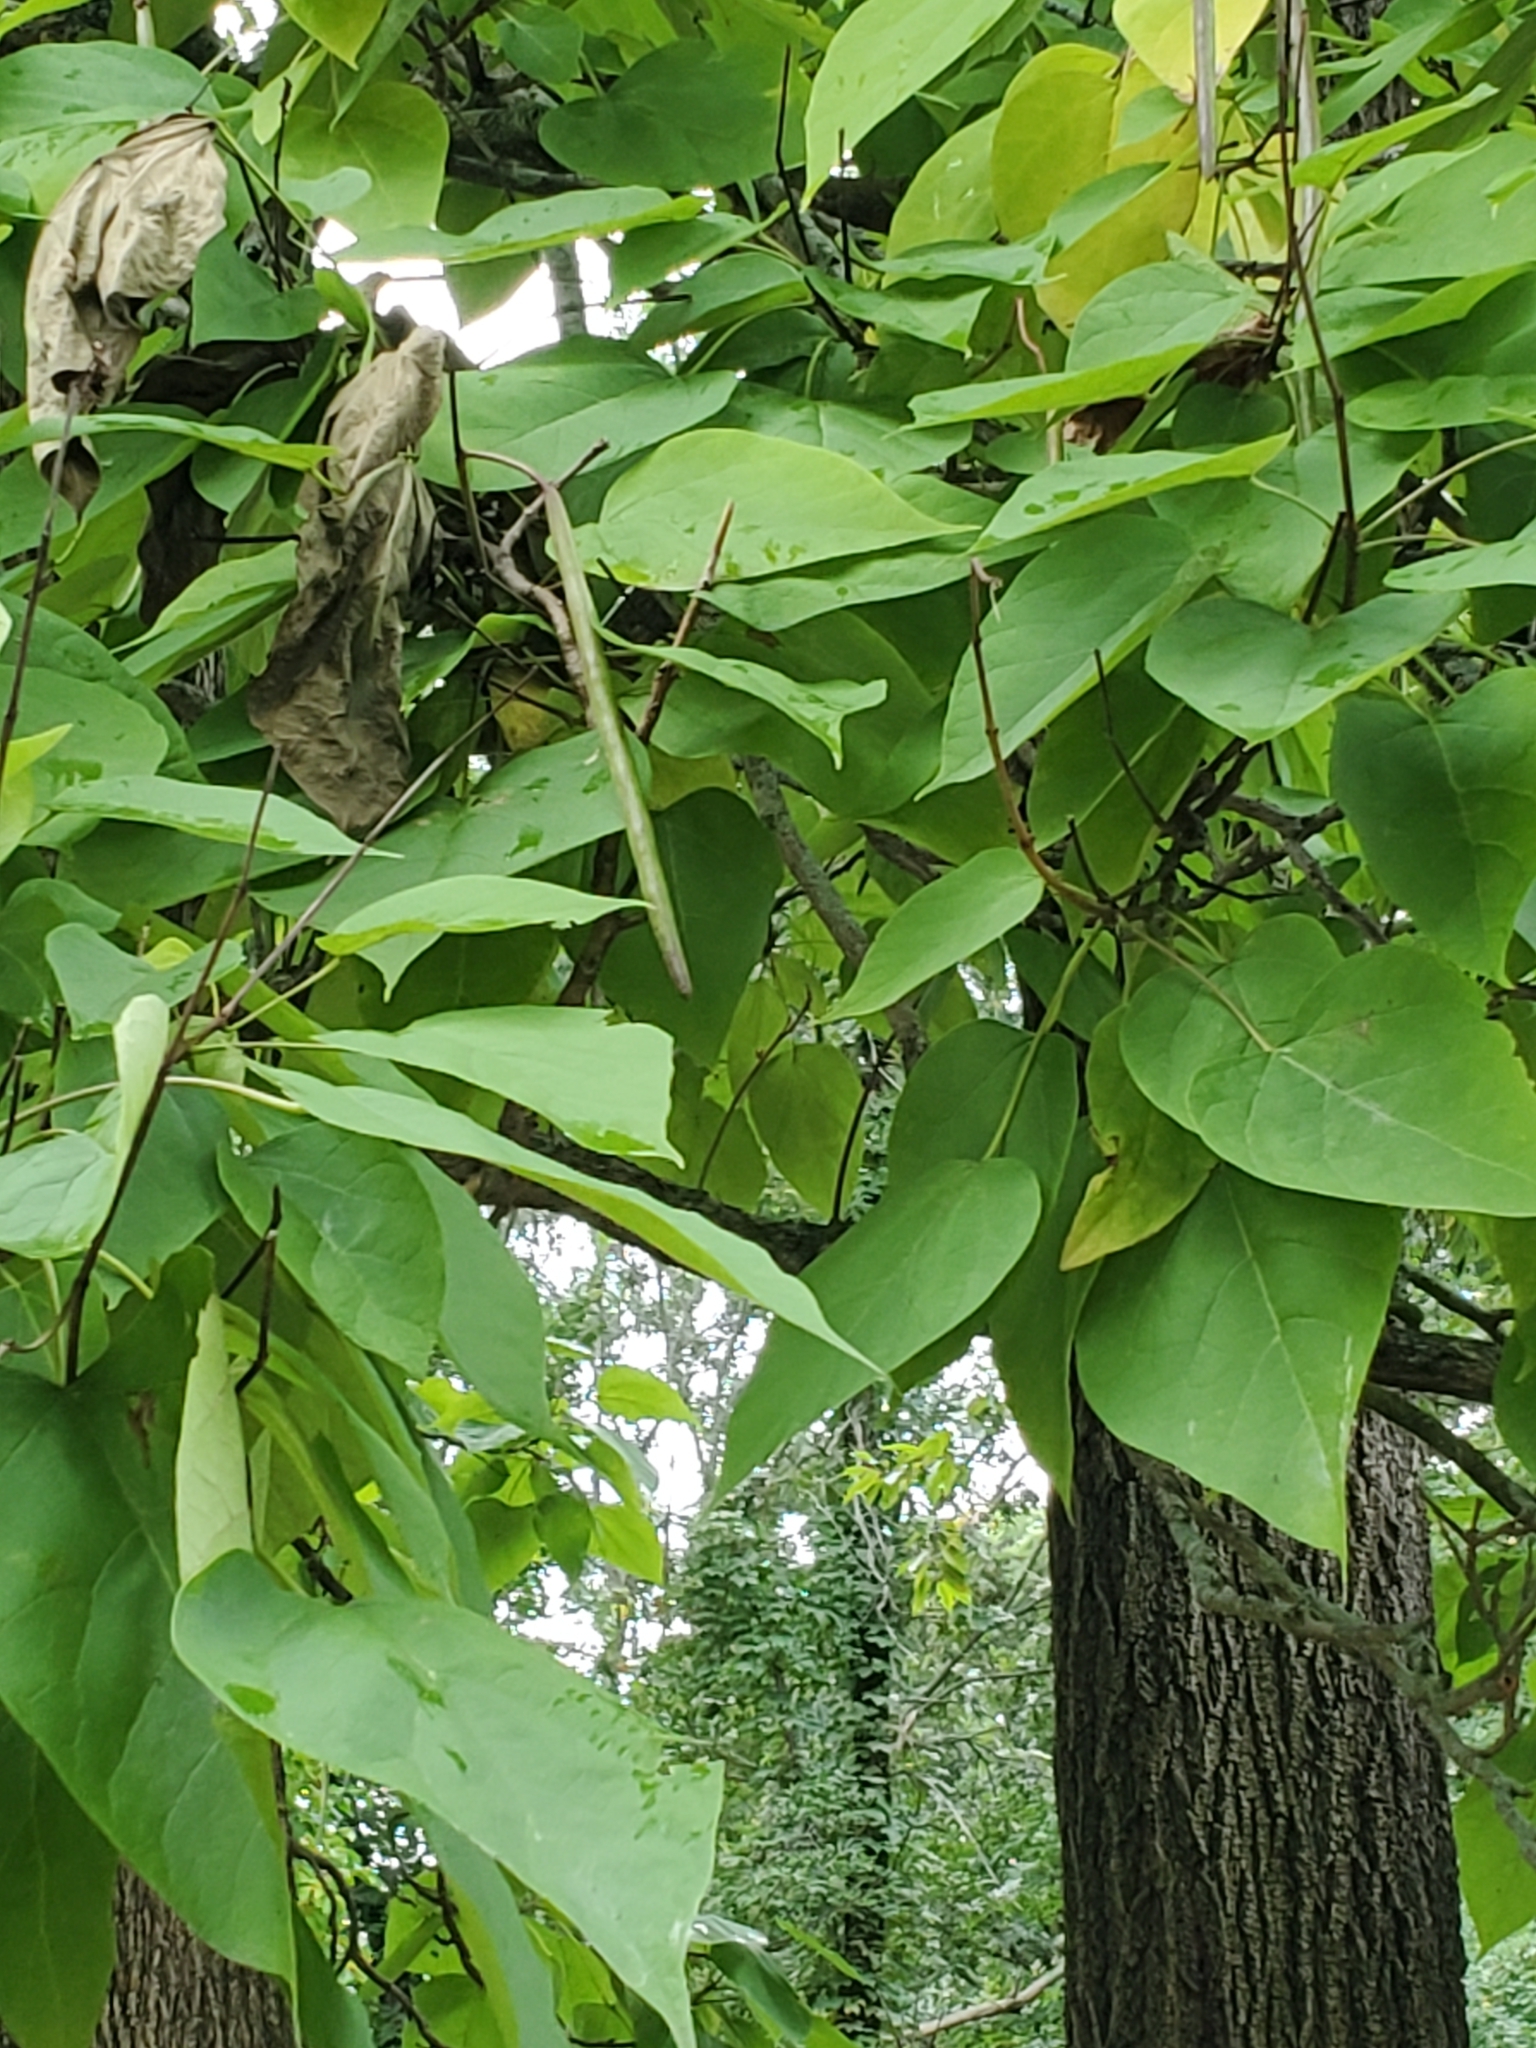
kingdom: Plantae
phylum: Tracheophyta
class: Magnoliopsida
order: Lamiales
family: Bignoniaceae
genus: Catalpa
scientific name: Catalpa speciosa
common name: Northern catalpa
